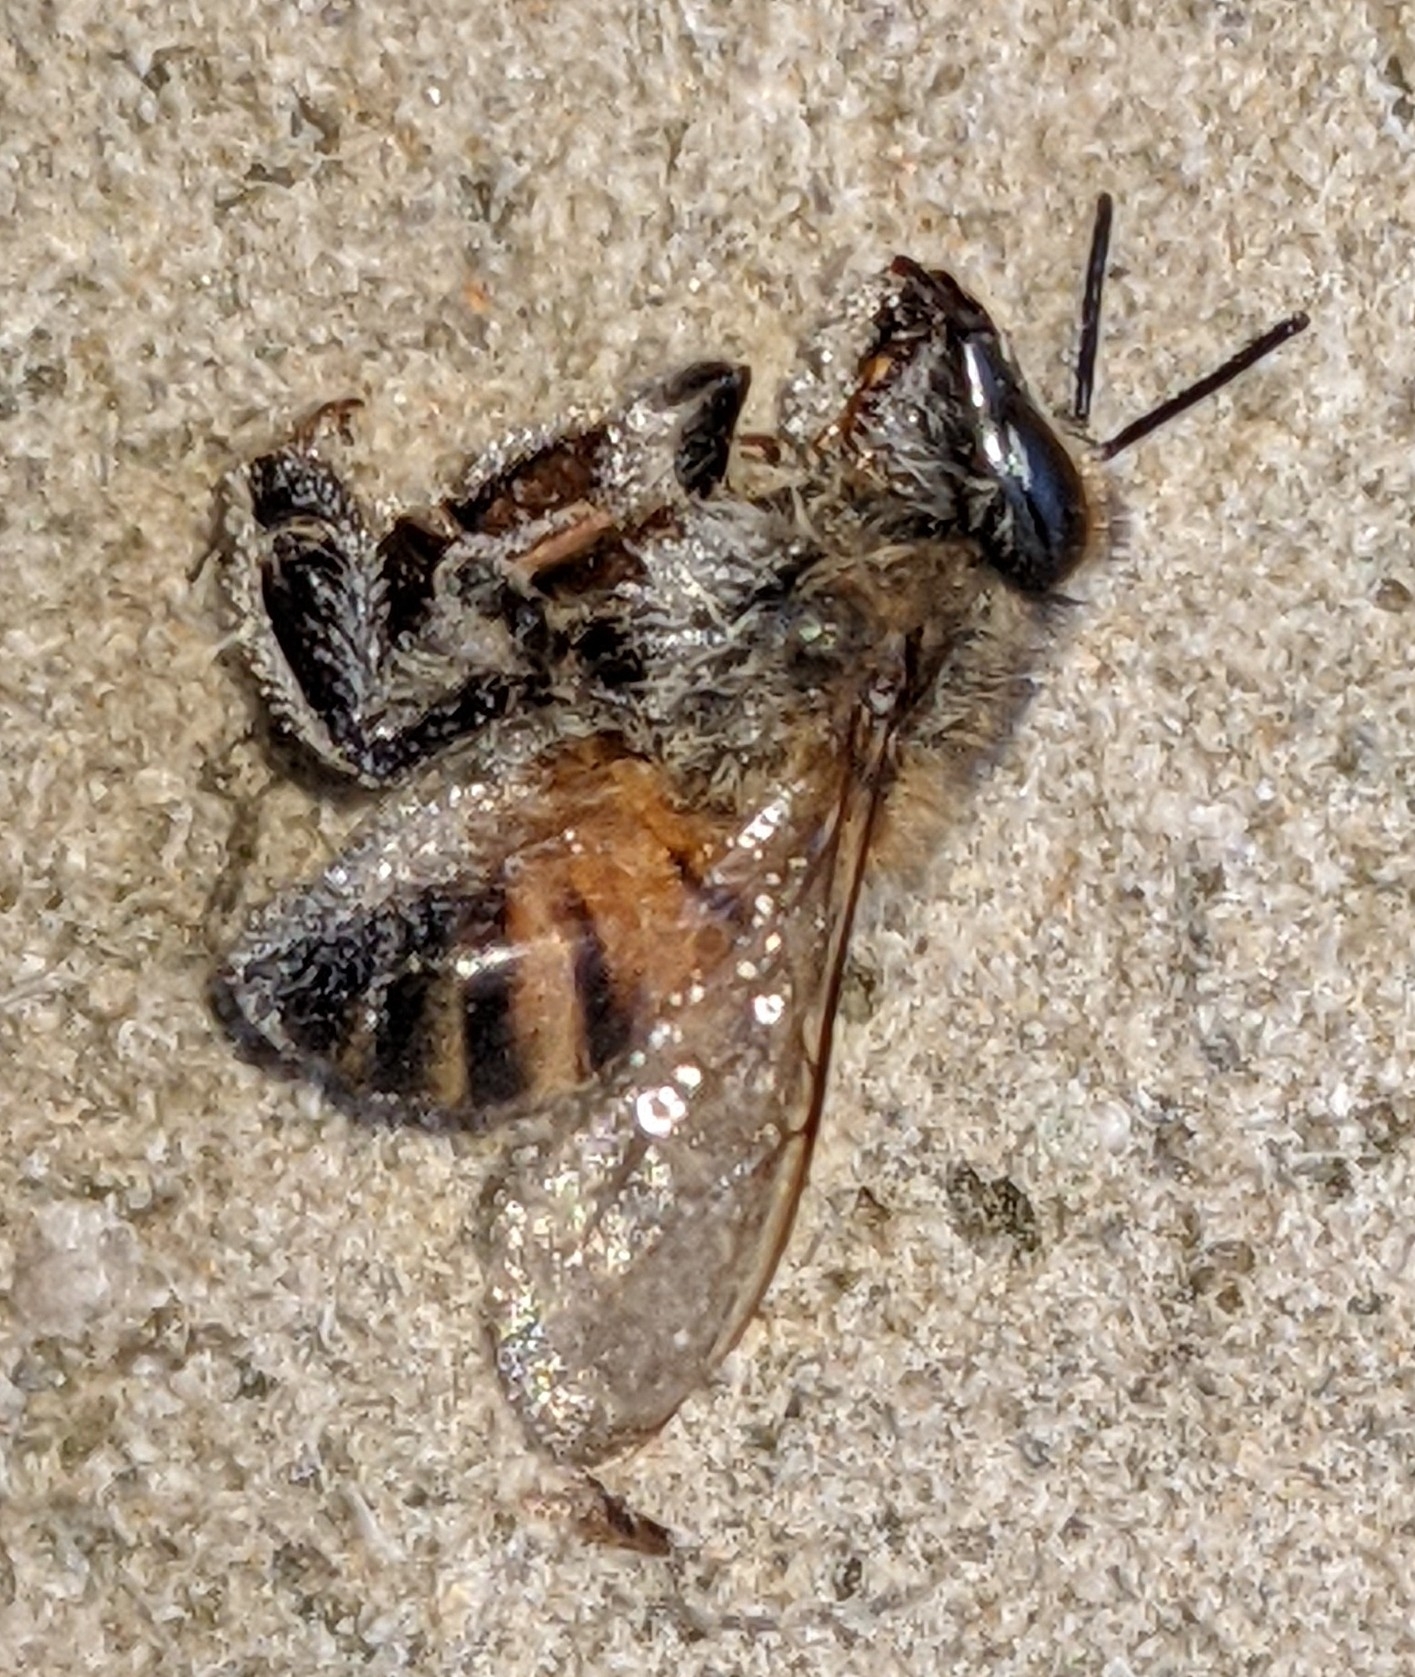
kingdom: Animalia
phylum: Arthropoda
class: Insecta
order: Hymenoptera
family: Apidae
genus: Apis
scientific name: Apis mellifera
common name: Honey bee
